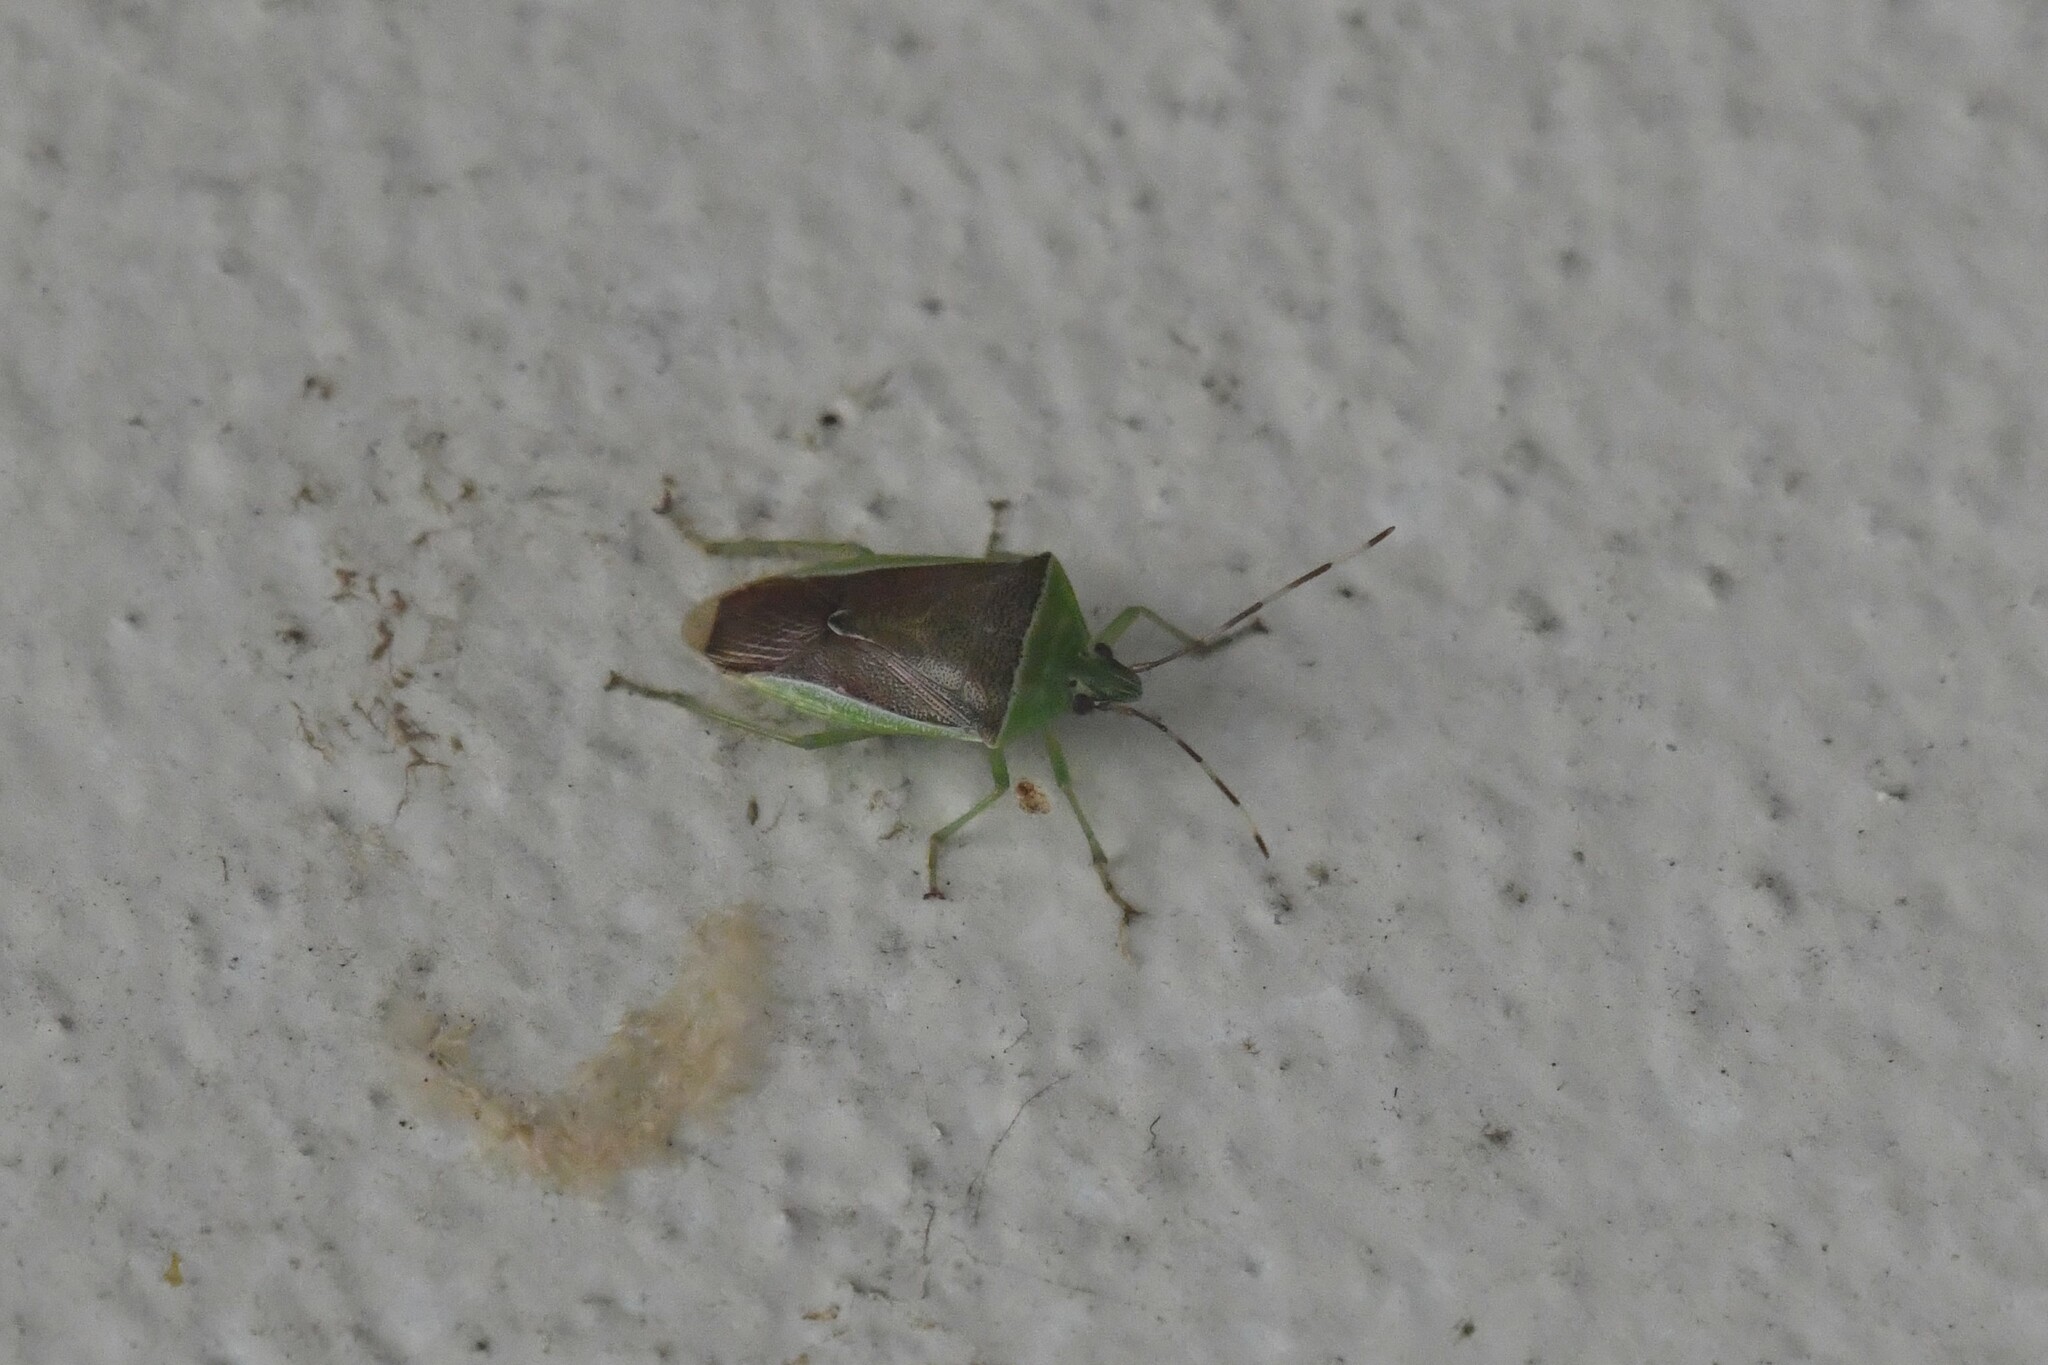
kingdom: Animalia
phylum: Arthropoda
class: Insecta
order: Hemiptera
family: Pentatomidae
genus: Neojurtina
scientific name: Neojurtina typica
